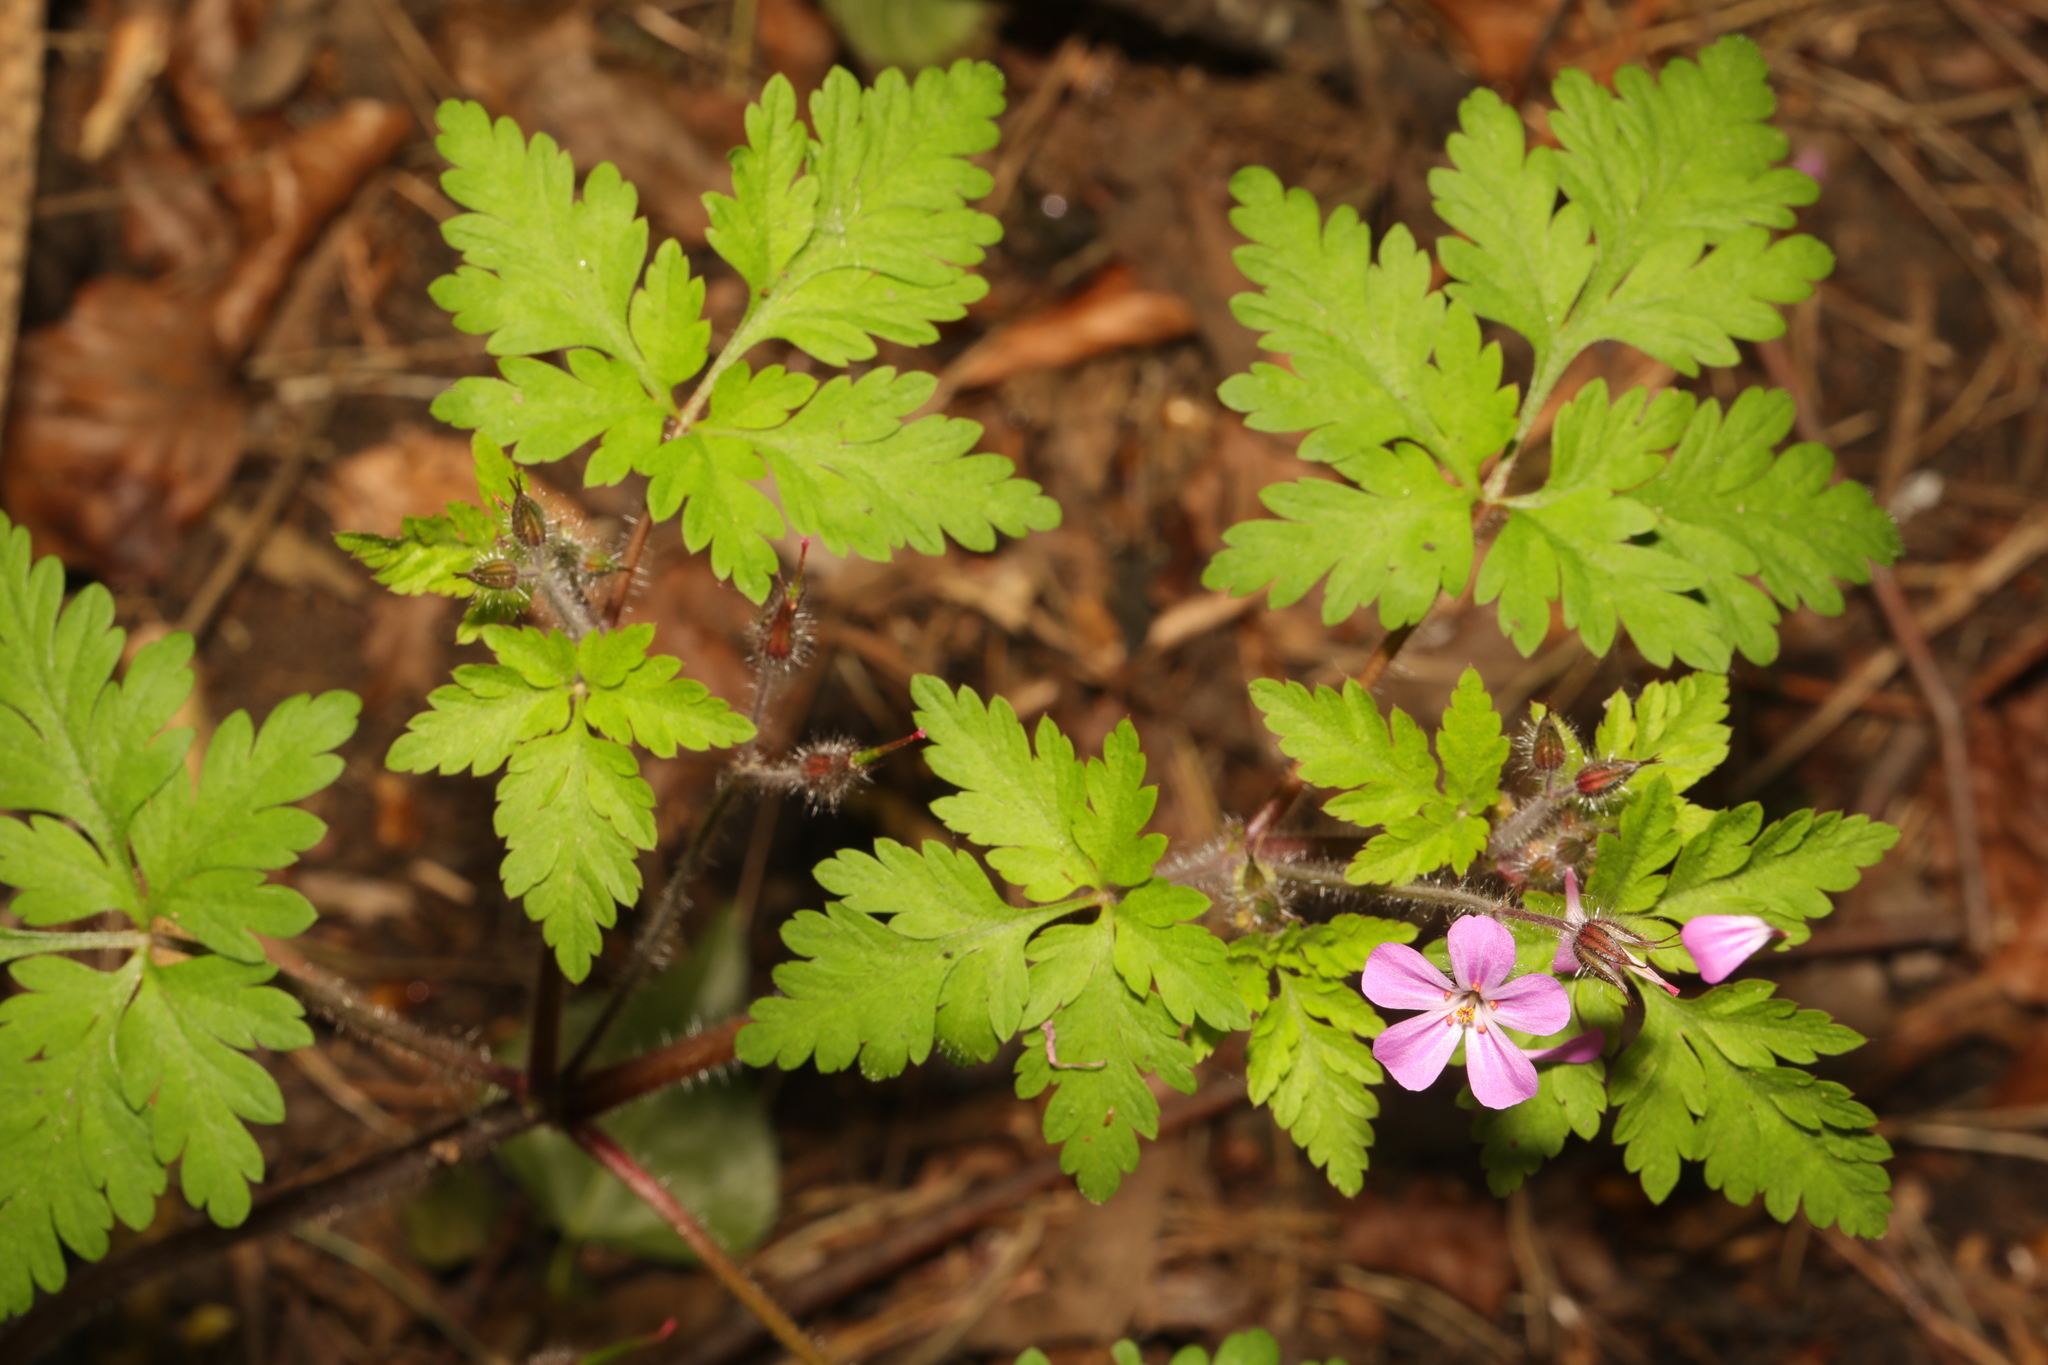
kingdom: Plantae
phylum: Tracheophyta
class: Magnoliopsida
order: Geraniales
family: Geraniaceae
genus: Geranium
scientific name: Geranium robertianum
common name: Herb-robert
